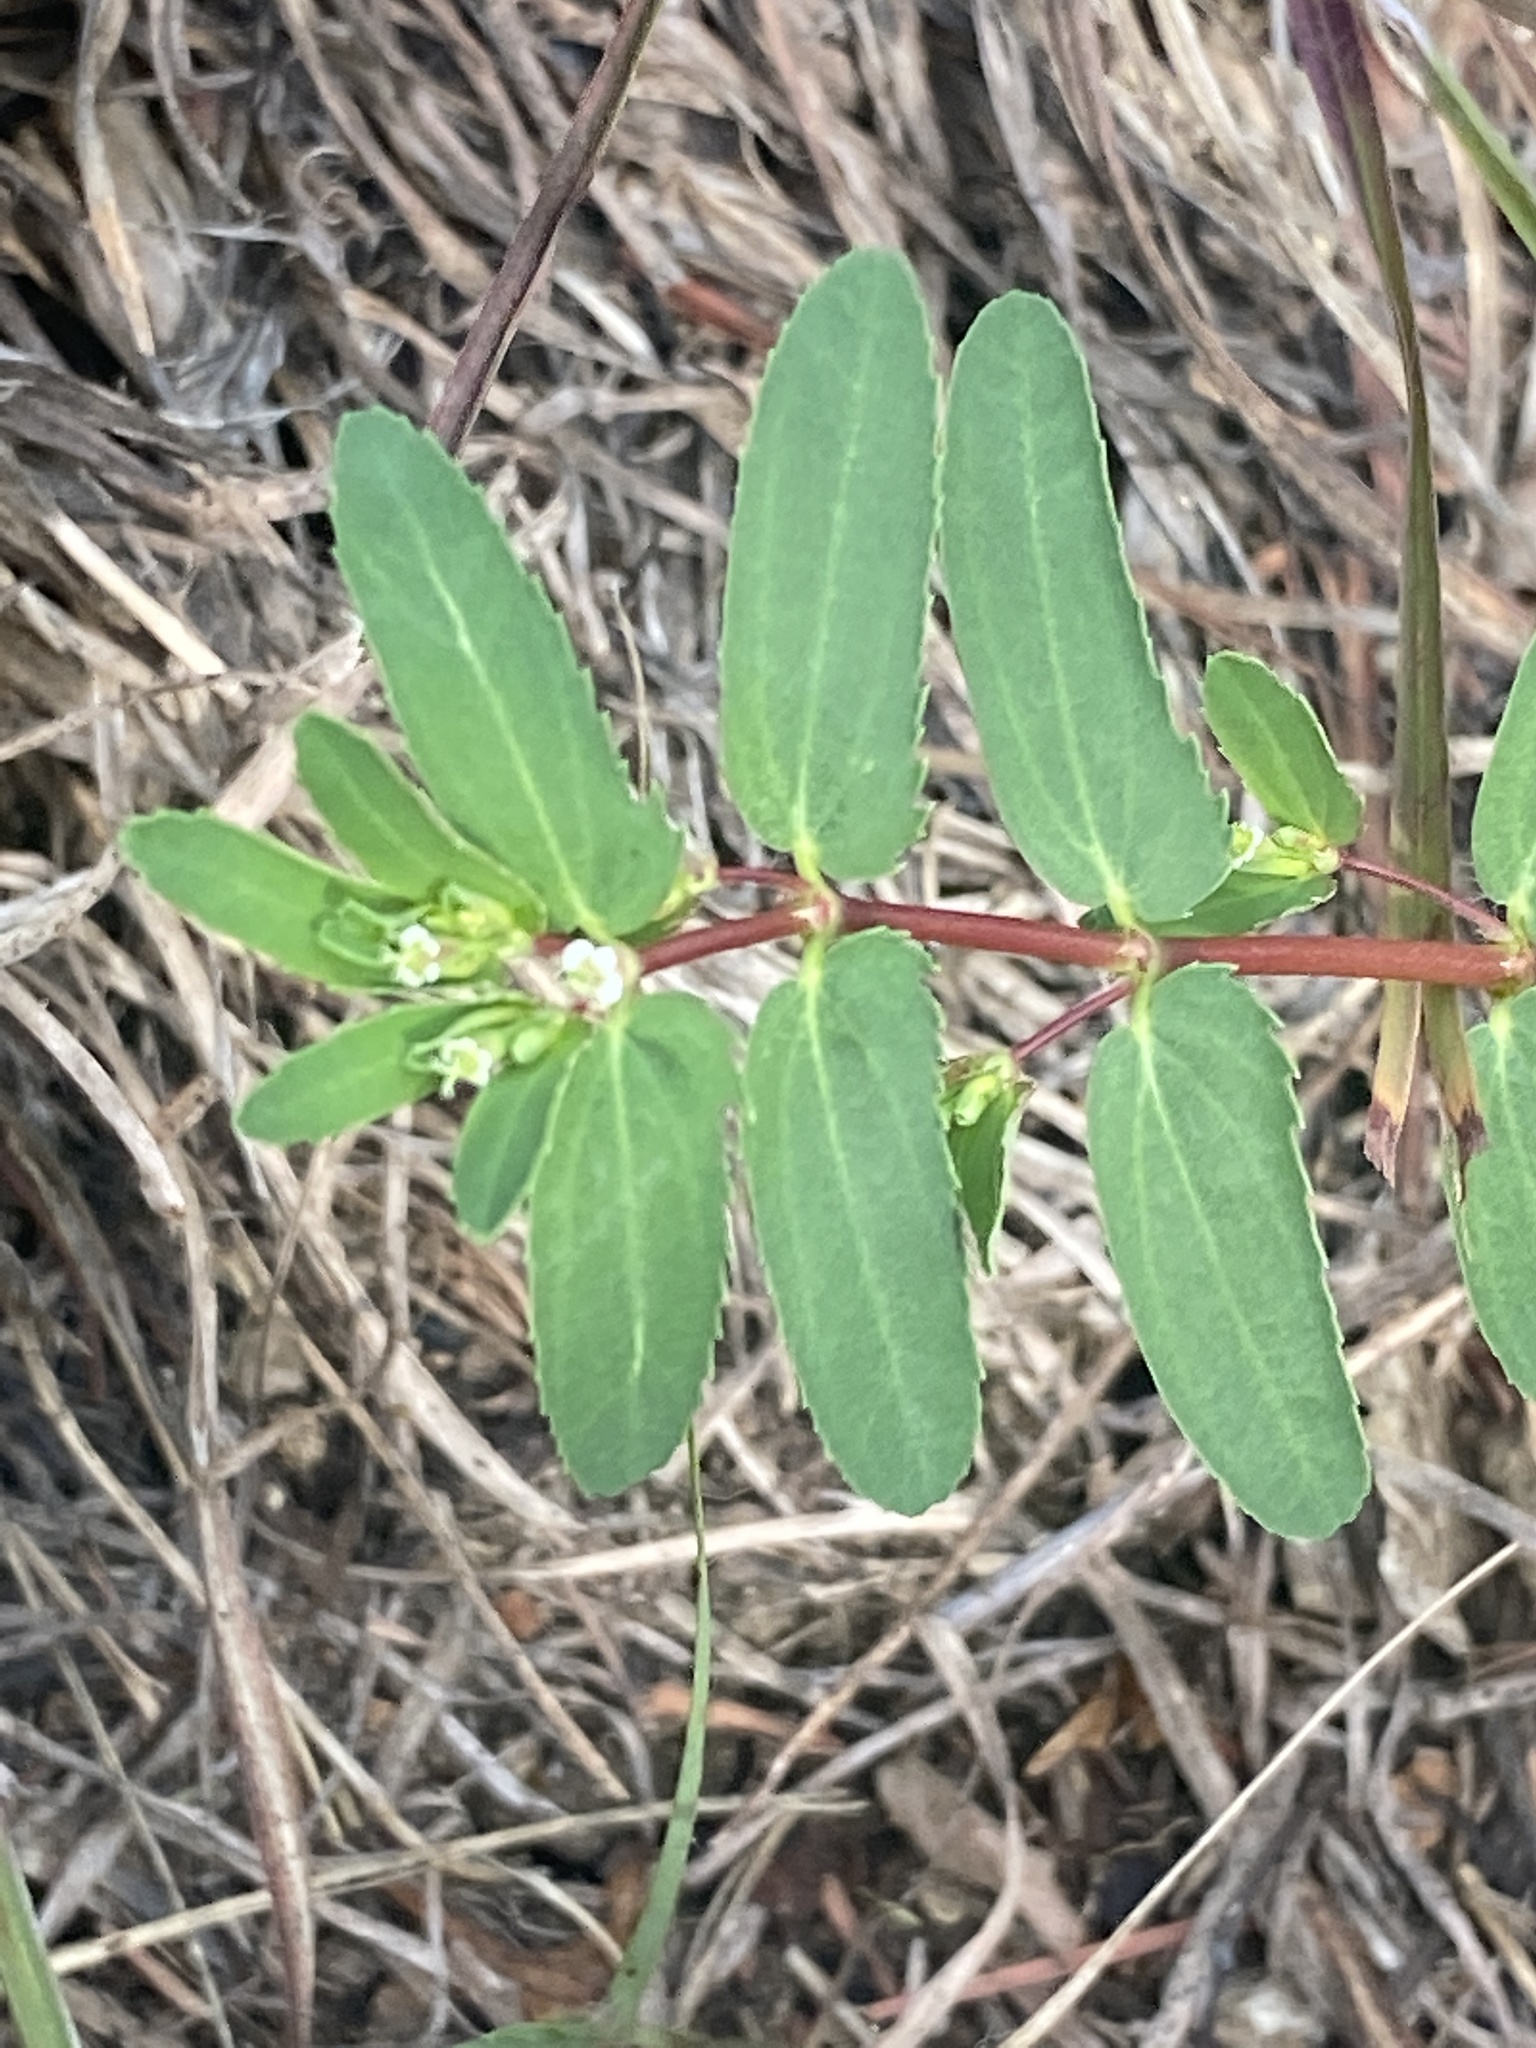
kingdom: Plantae
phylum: Tracheophyta
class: Magnoliopsida
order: Malpighiales
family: Euphorbiaceae
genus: Euphorbia
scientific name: Euphorbia nutans
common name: Eyebane
